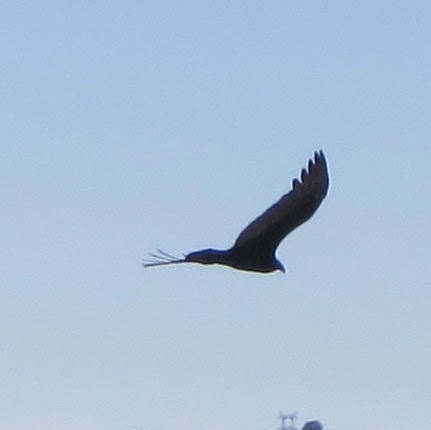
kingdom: Animalia
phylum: Chordata
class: Aves
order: Accipitriformes
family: Cathartidae
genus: Cathartes
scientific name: Cathartes aura
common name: Turkey vulture
